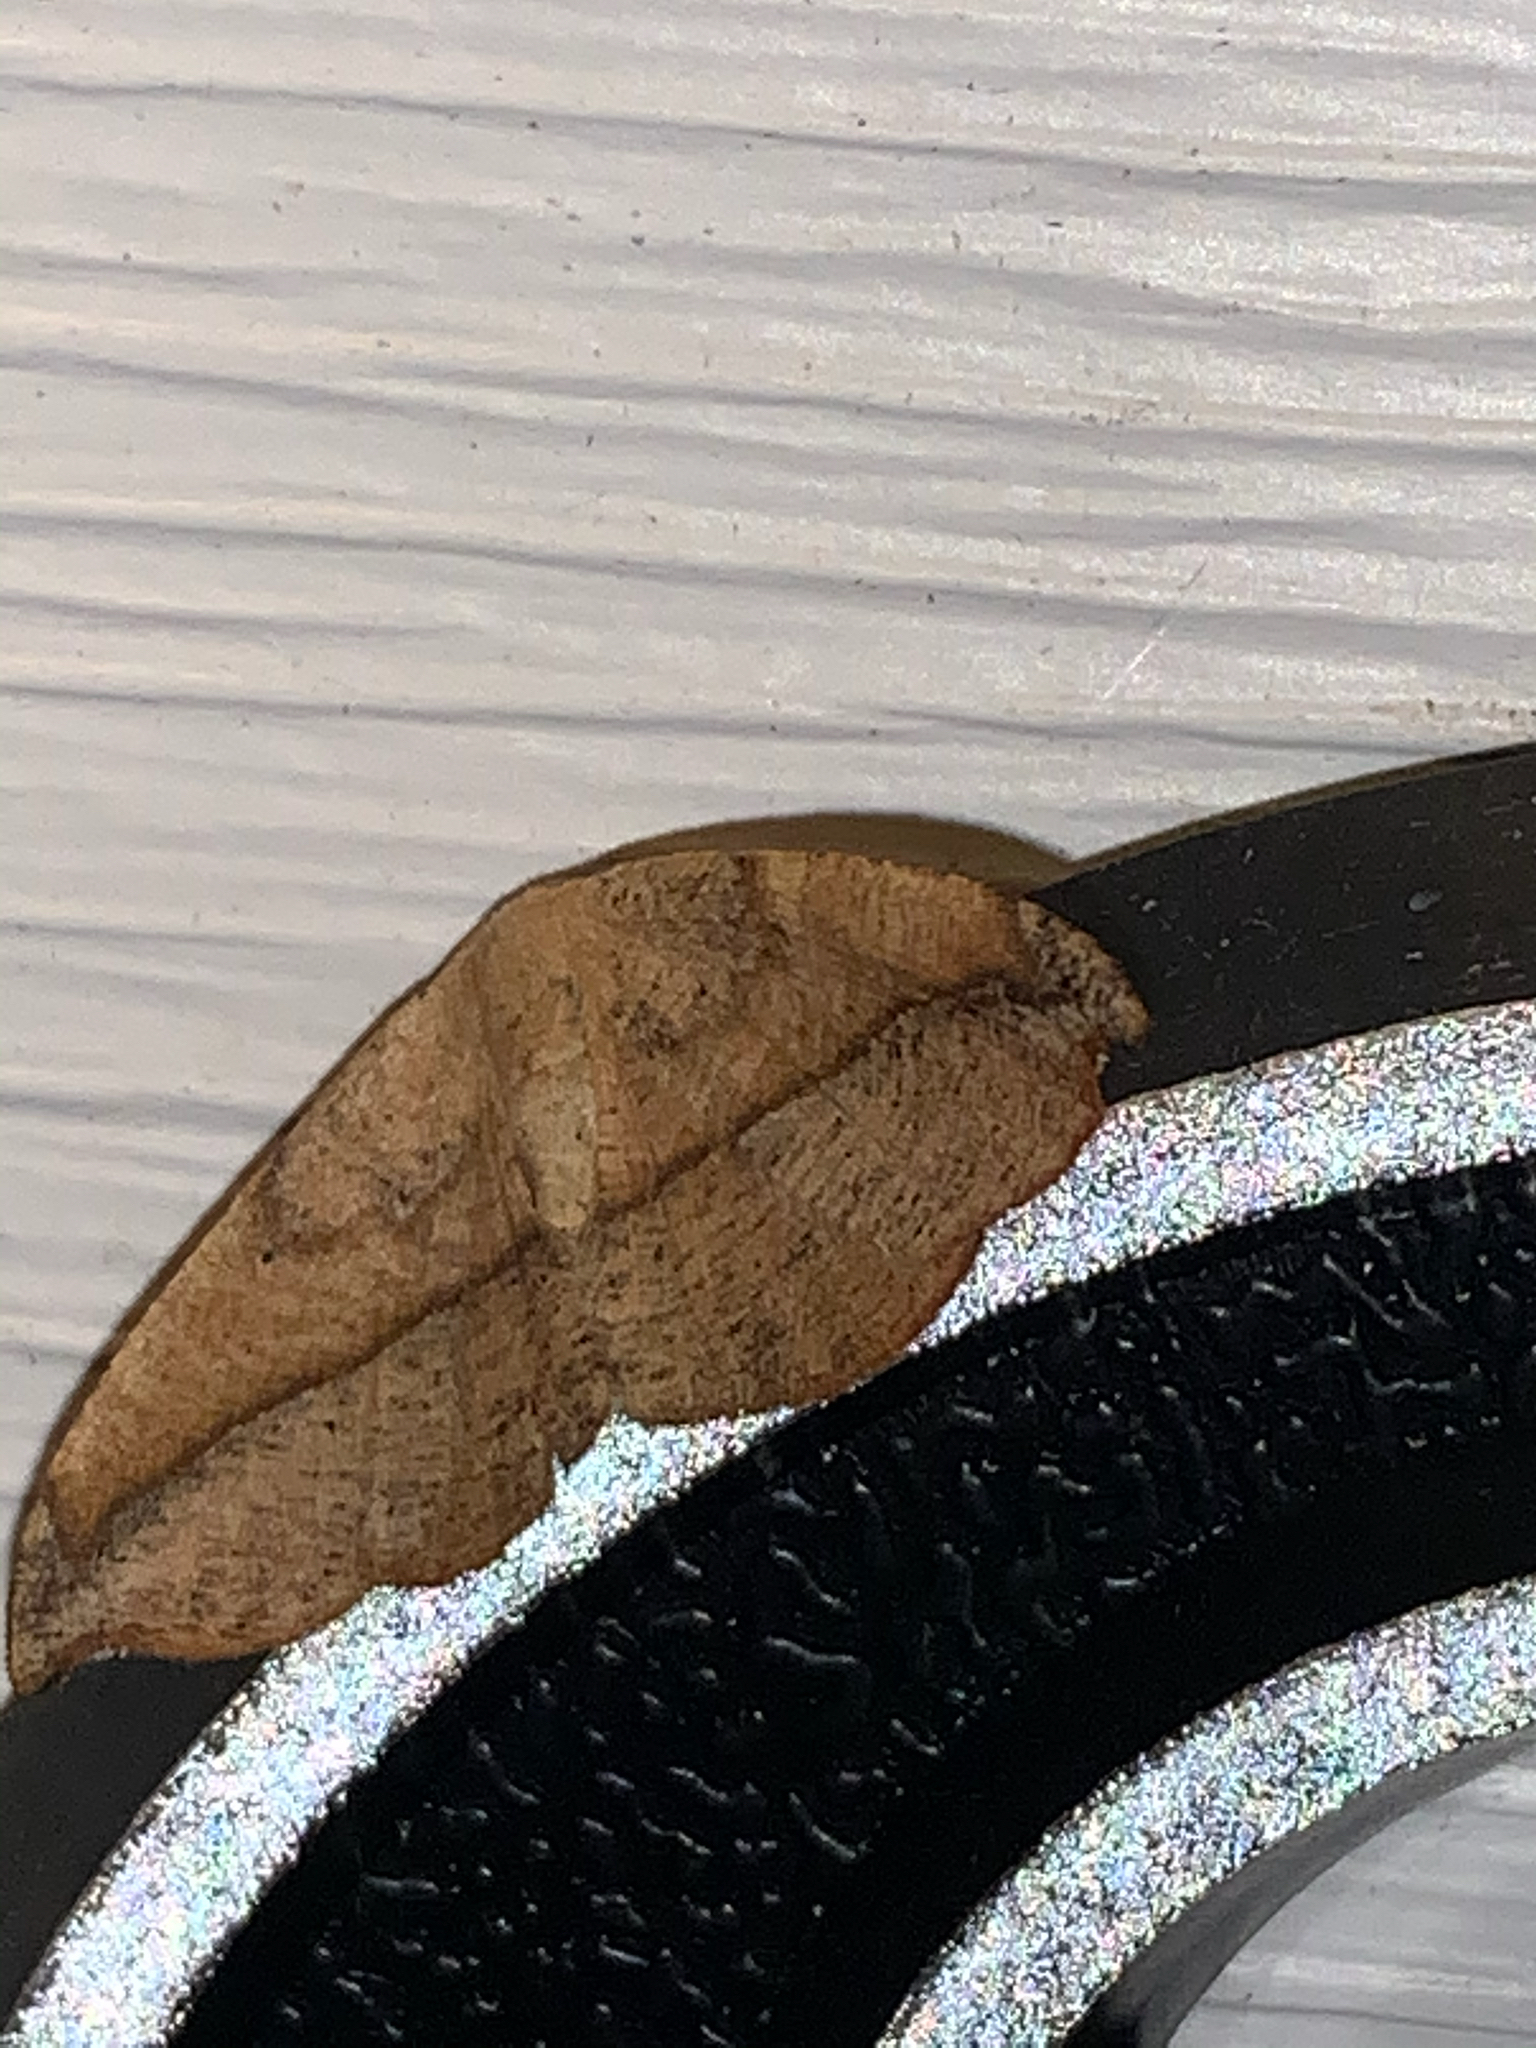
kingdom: Animalia
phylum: Arthropoda
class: Insecta
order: Lepidoptera
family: Geometridae
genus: Patalene
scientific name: Patalene olyzonaria
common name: Juniper geometer moth
